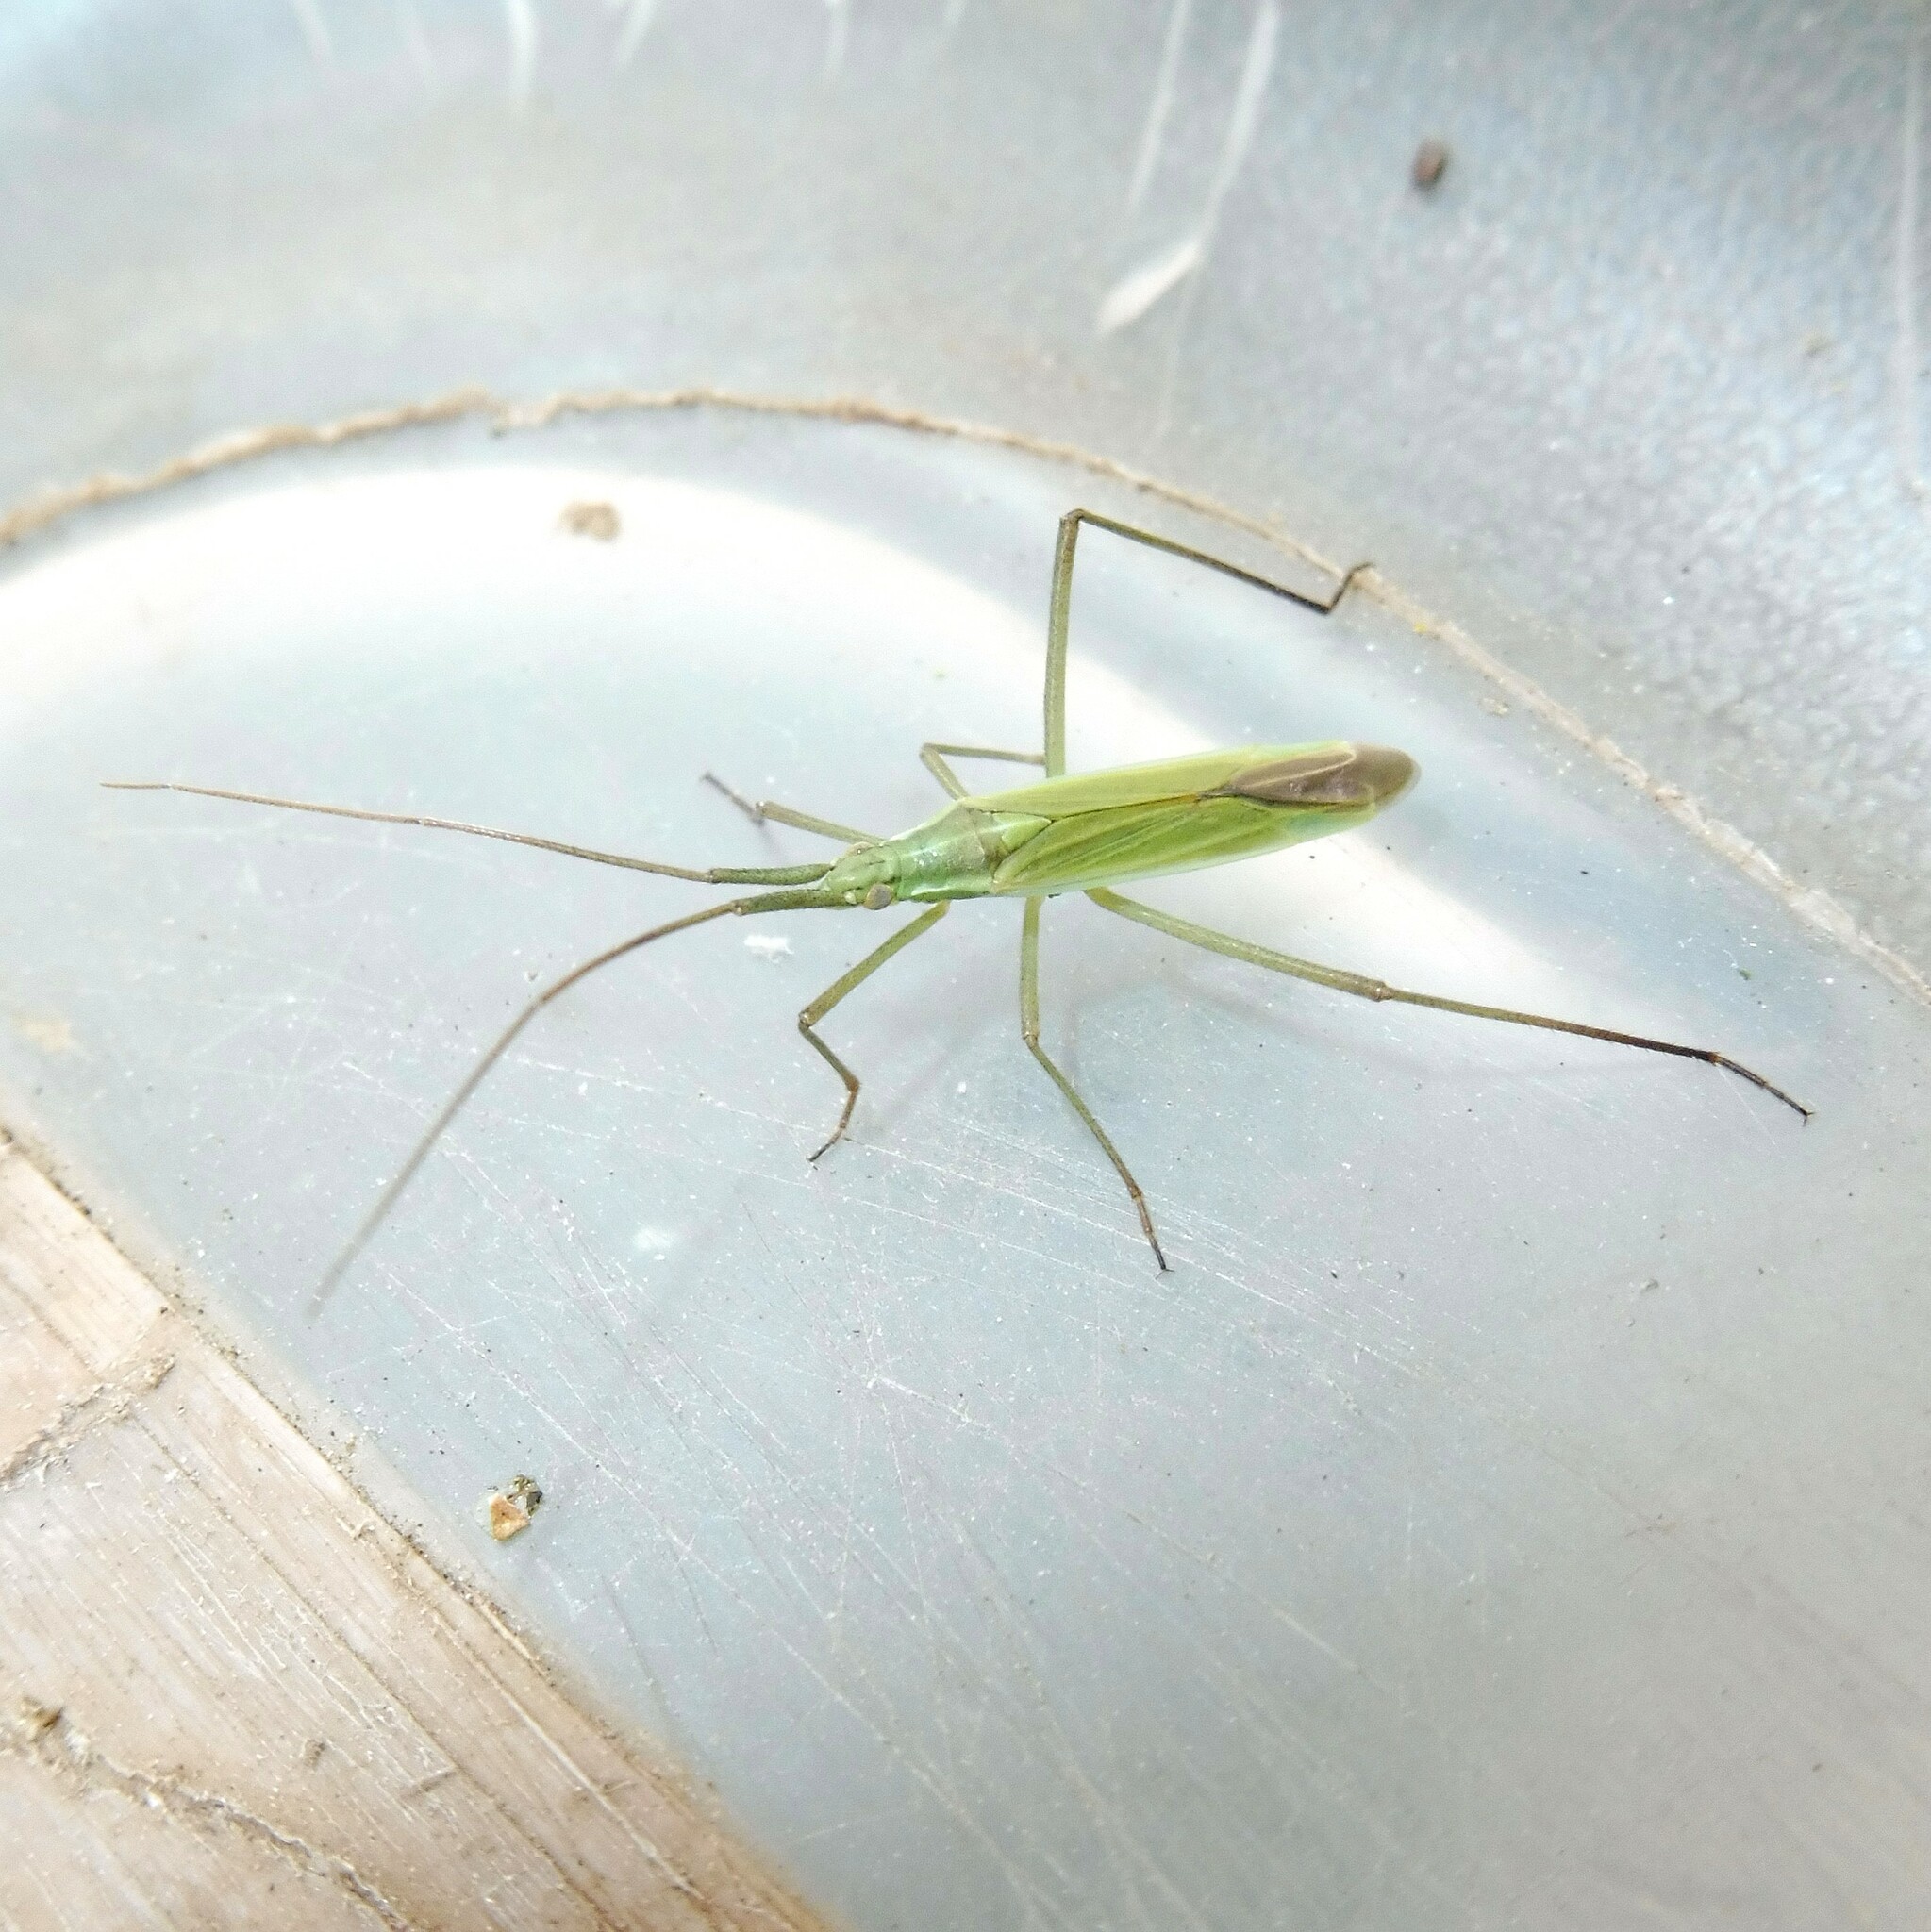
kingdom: Animalia
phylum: Arthropoda
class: Insecta
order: Hemiptera
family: Miridae
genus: Megaloceroea
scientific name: Megaloceroea recticornis
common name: Plant bug
